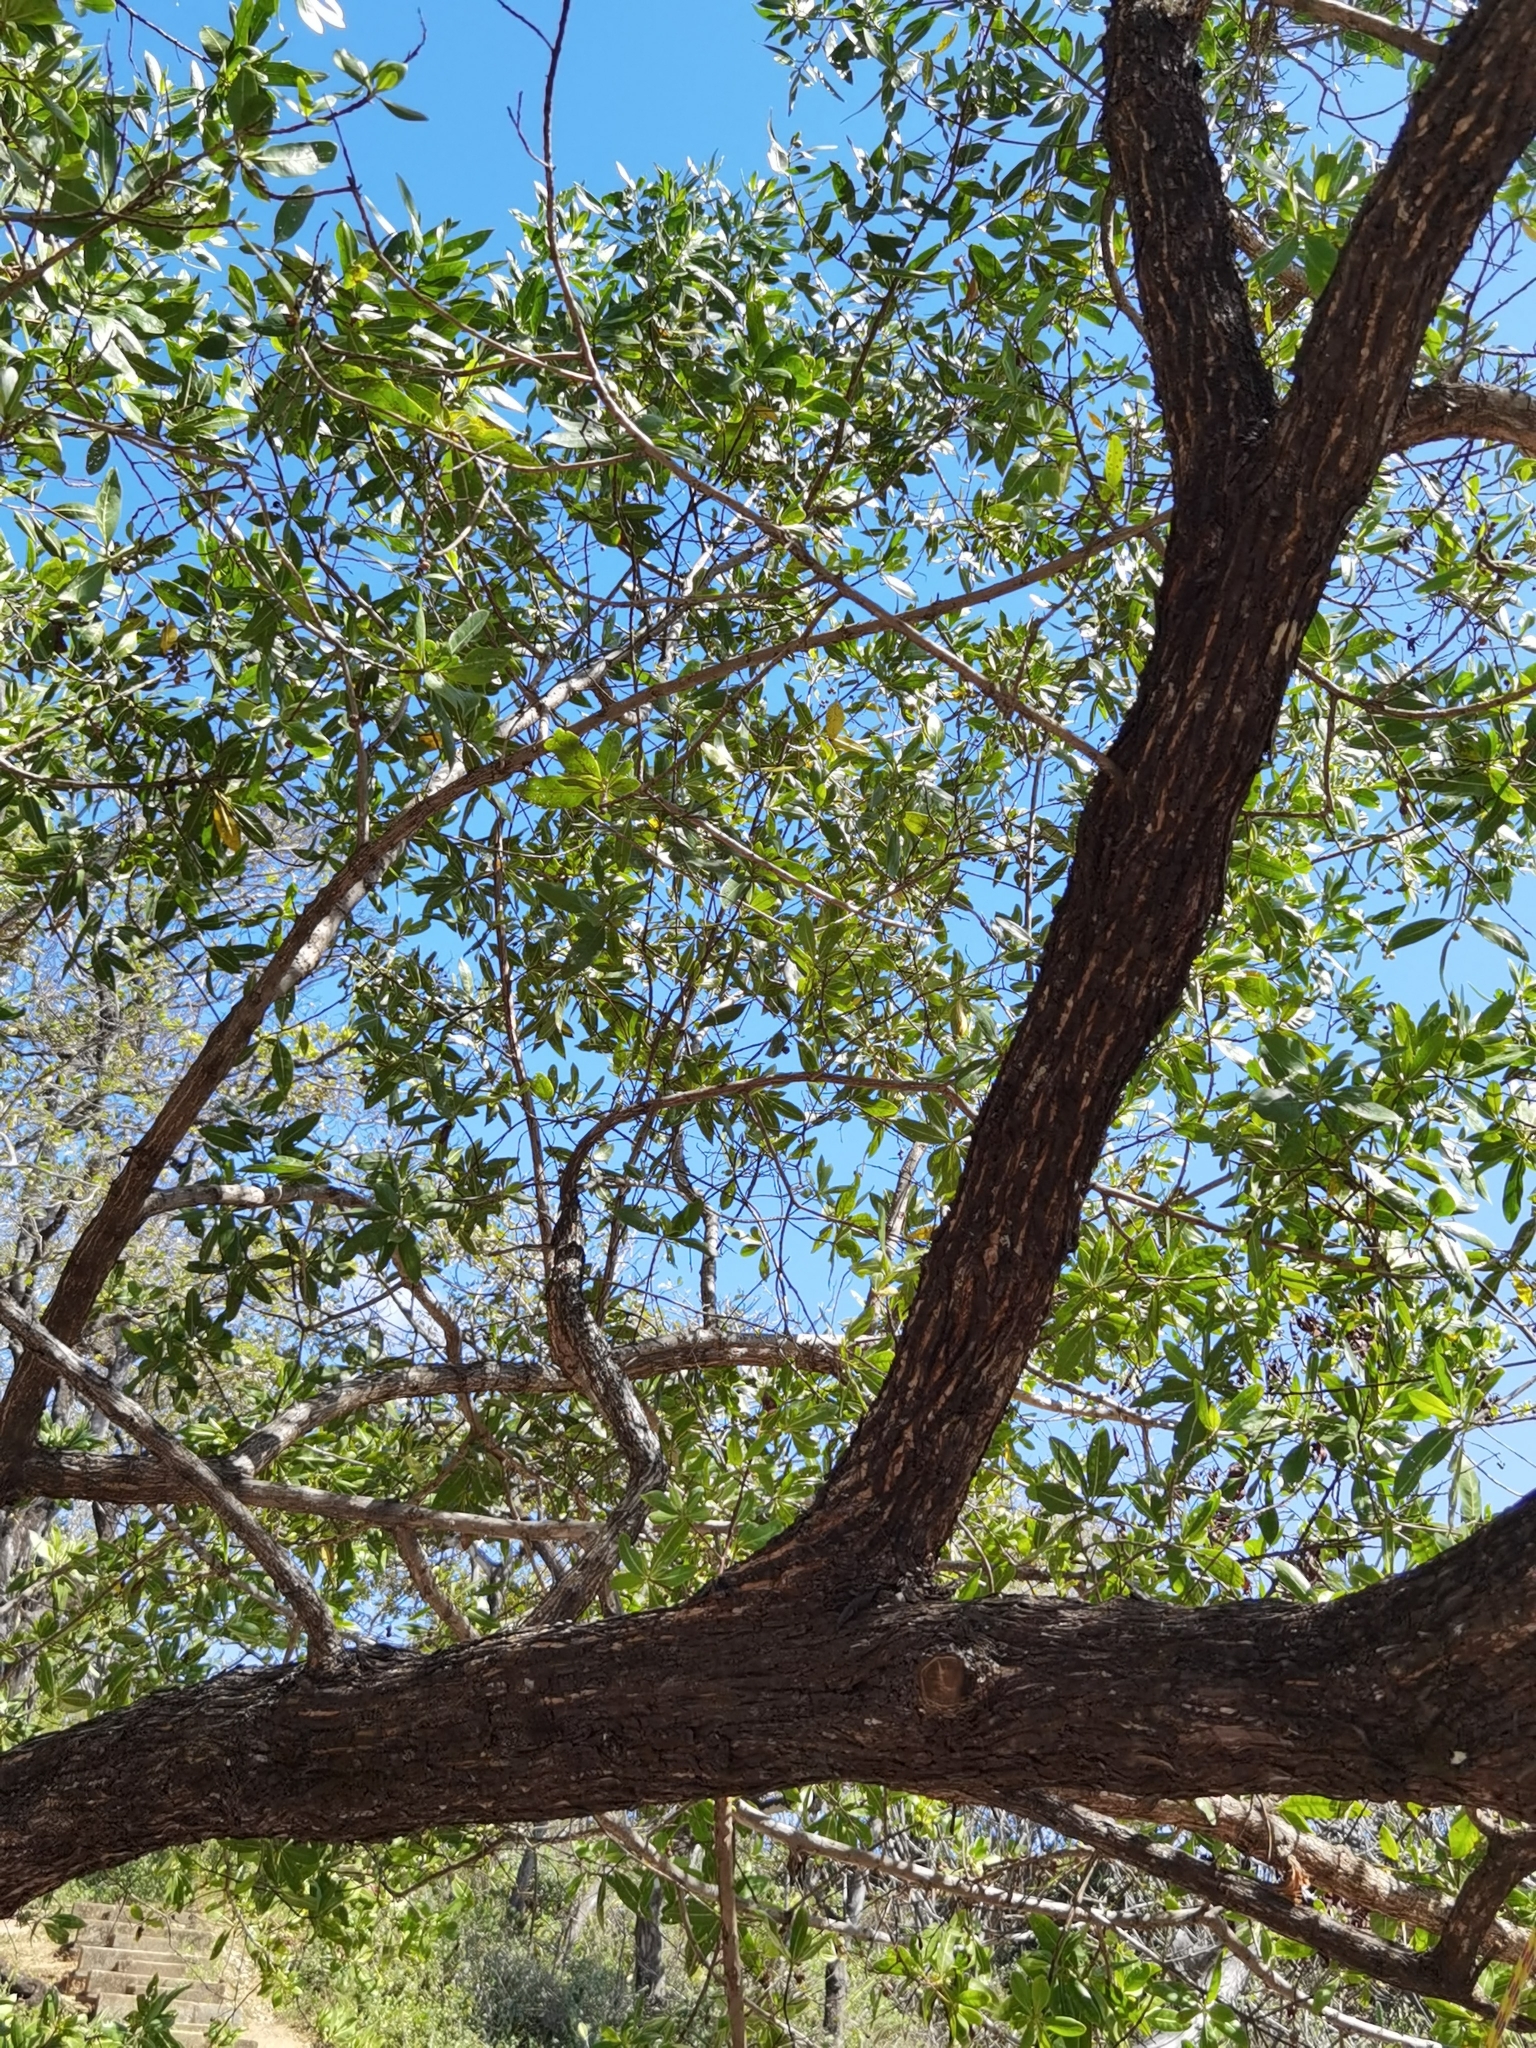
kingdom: Plantae
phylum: Tracheophyta
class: Magnoliopsida
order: Myrtales
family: Combretaceae
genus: Conocarpus
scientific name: Conocarpus erectus
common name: Button mangrove
